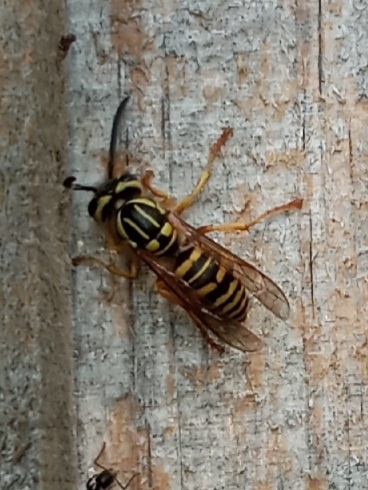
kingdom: Animalia
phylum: Arthropoda
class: Insecta
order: Hymenoptera
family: Vespidae
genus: Vespula
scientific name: Vespula squamosa
